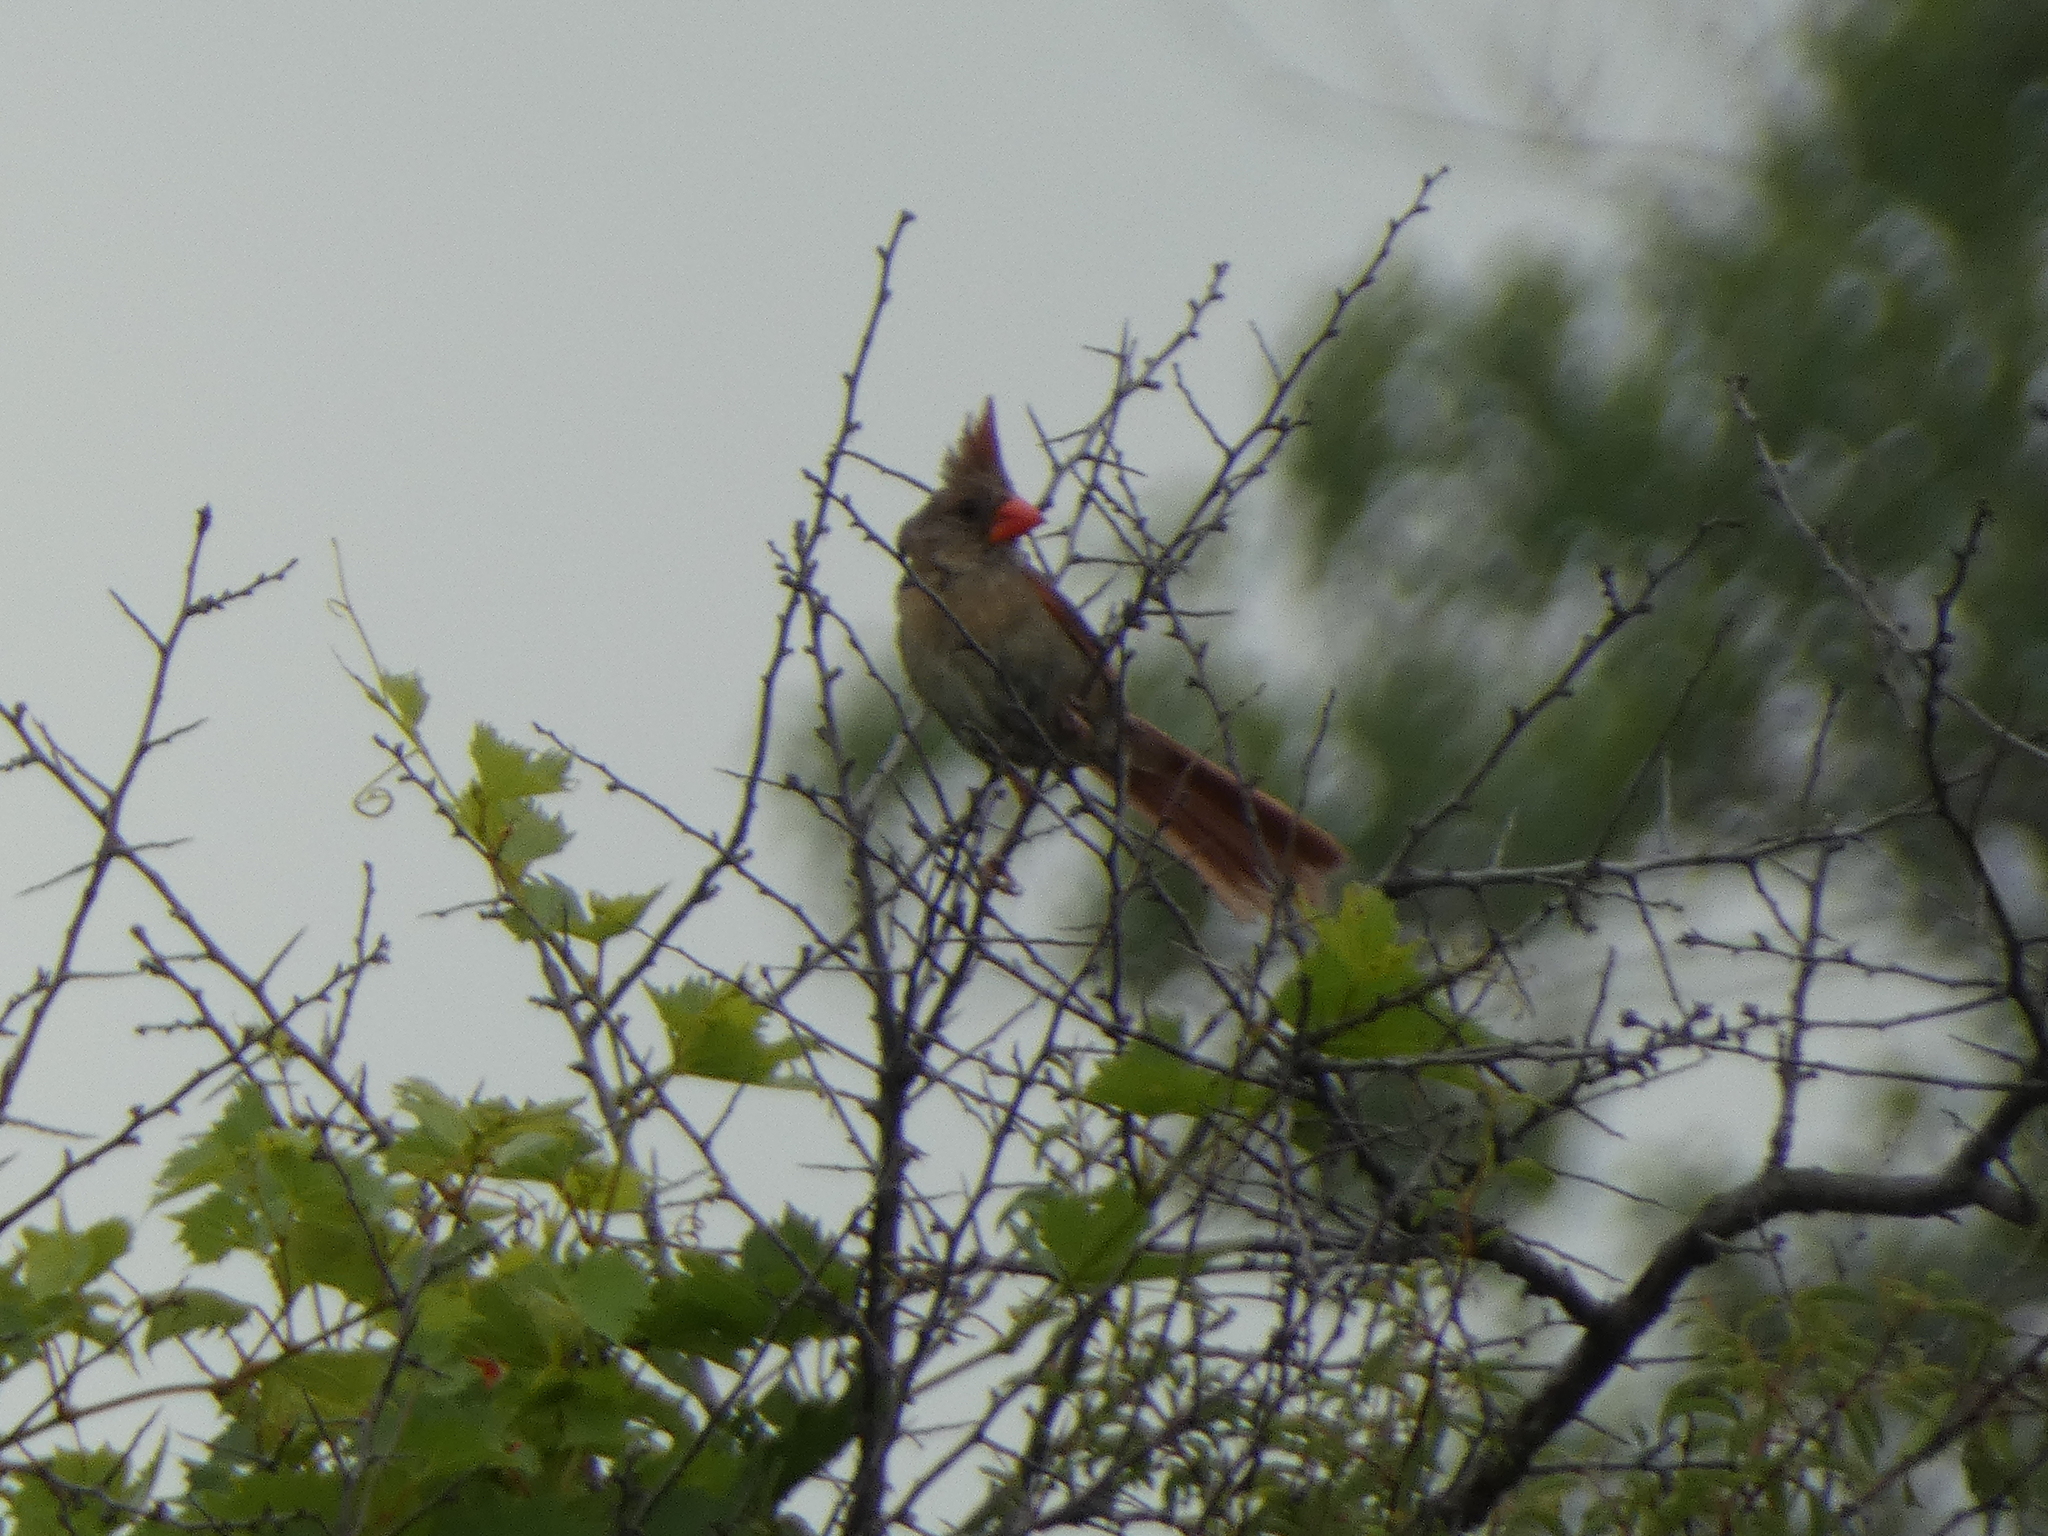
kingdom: Animalia
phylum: Chordata
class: Aves
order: Passeriformes
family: Cardinalidae
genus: Cardinalis
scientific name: Cardinalis cardinalis
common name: Northern cardinal
